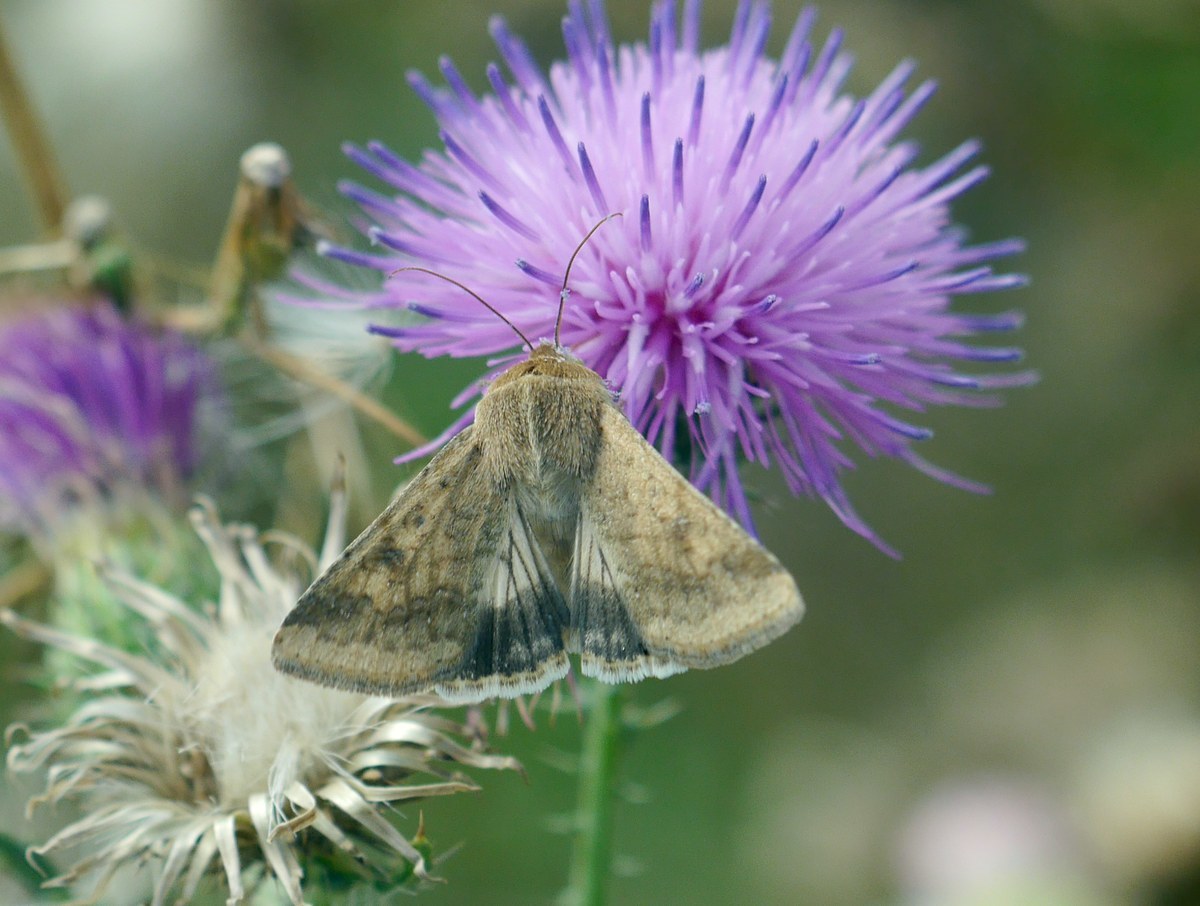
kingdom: Animalia
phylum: Arthropoda
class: Insecta
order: Lepidoptera
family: Noctuidae
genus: Helicoverpa
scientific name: Helicoverpa armigera
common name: Cotton bollworm
